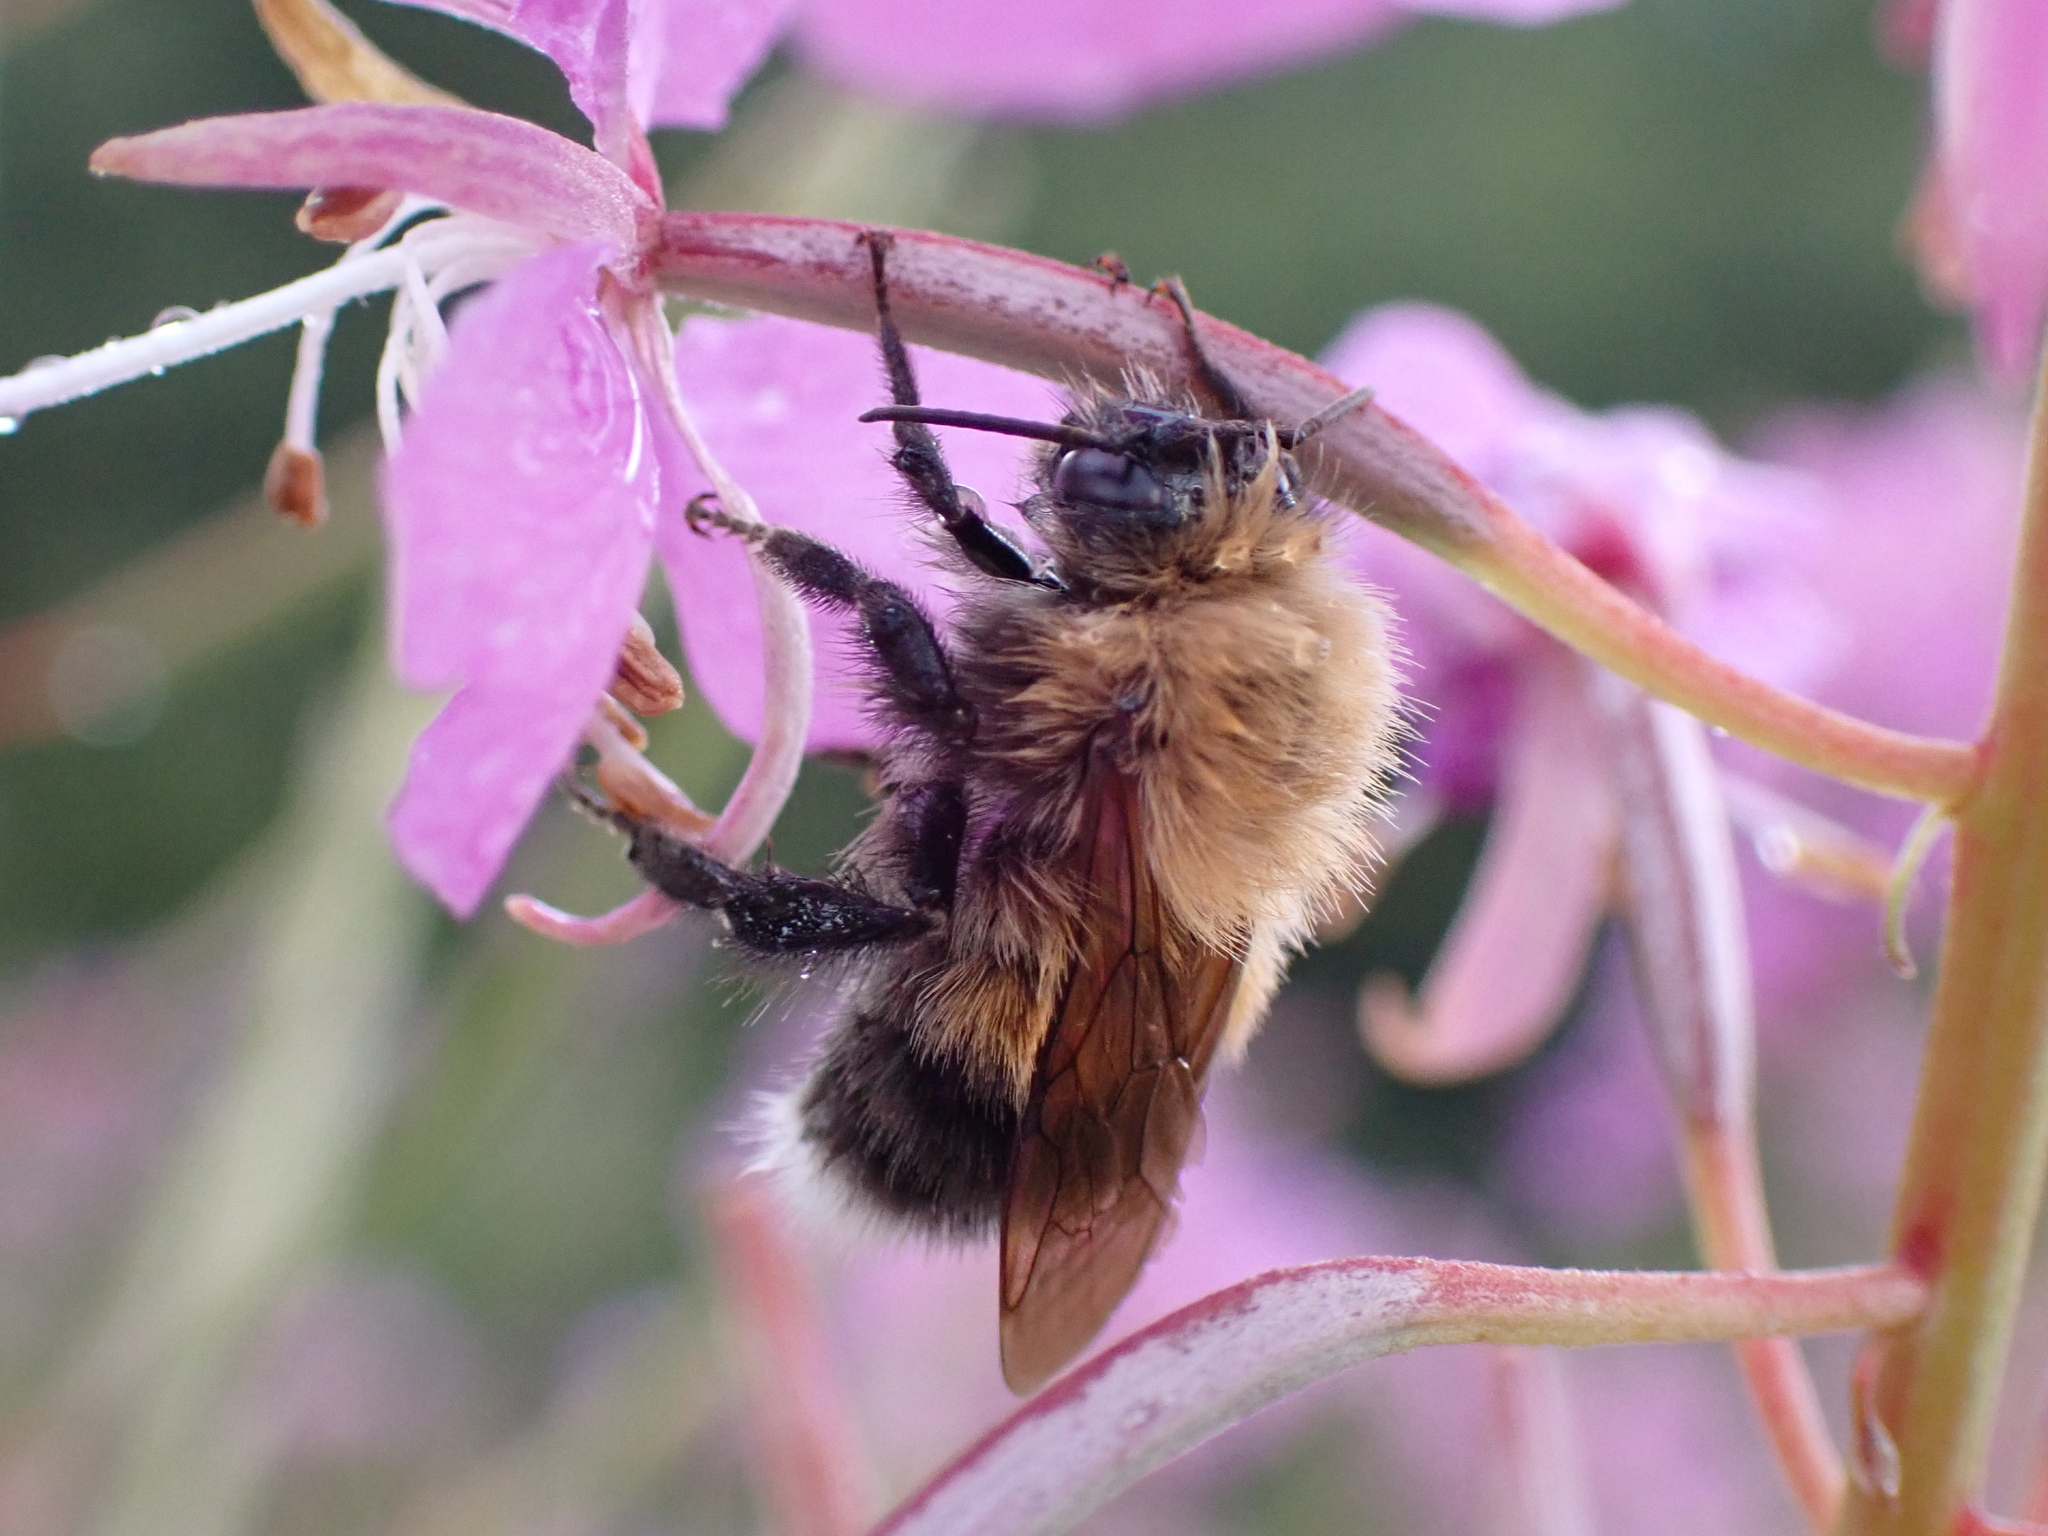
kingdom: Animalia
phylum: Arthropoda
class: Insecta
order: Hymenoptera
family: Apidae
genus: Bombus
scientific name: Bombus hypnorum
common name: New garden bumblebee
